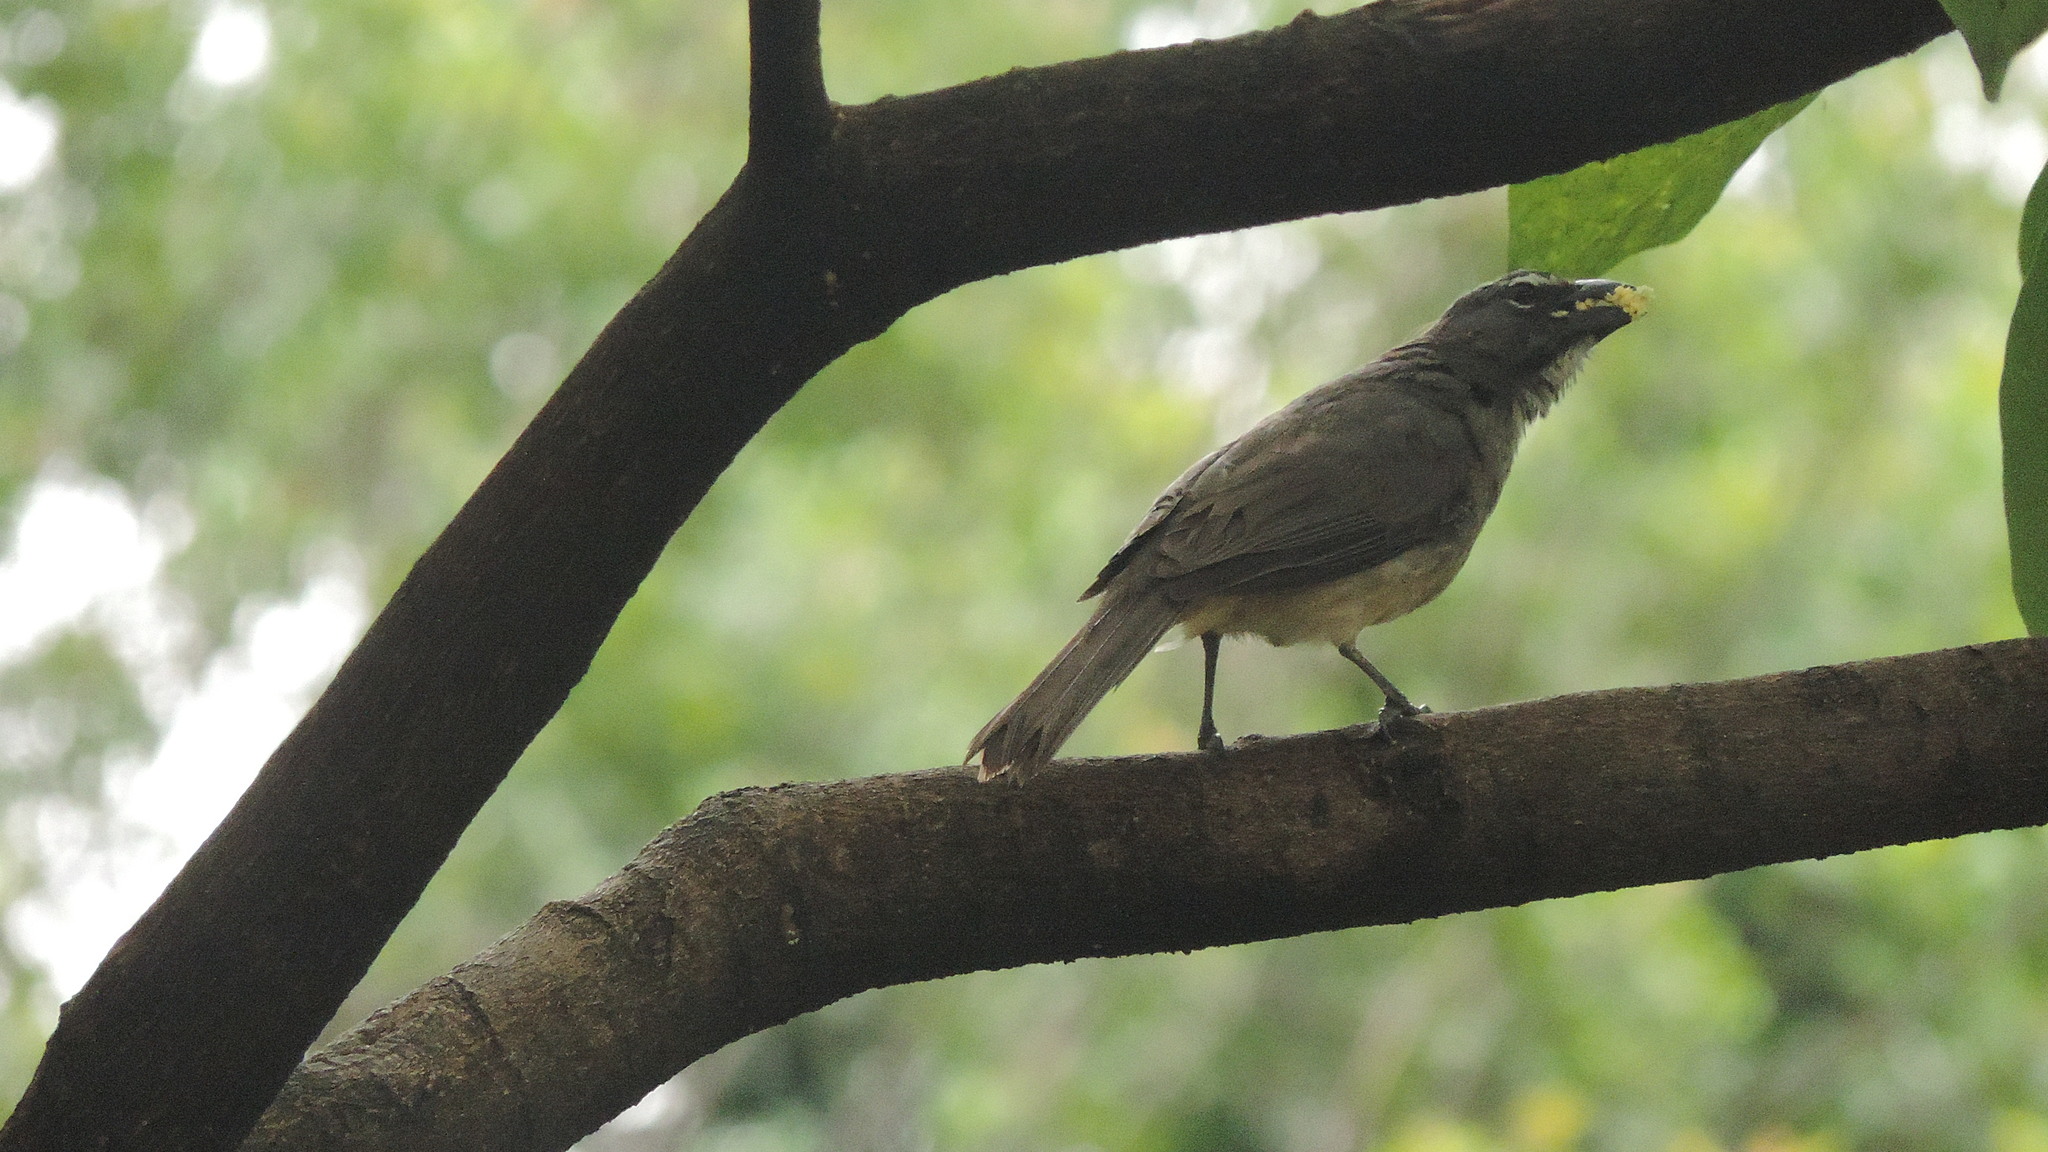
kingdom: Animalia
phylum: Chordata
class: Aves
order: Passeriformes
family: Thraupidae
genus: Saltator
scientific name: Saltator olivascens
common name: Caribbean grey saltator
